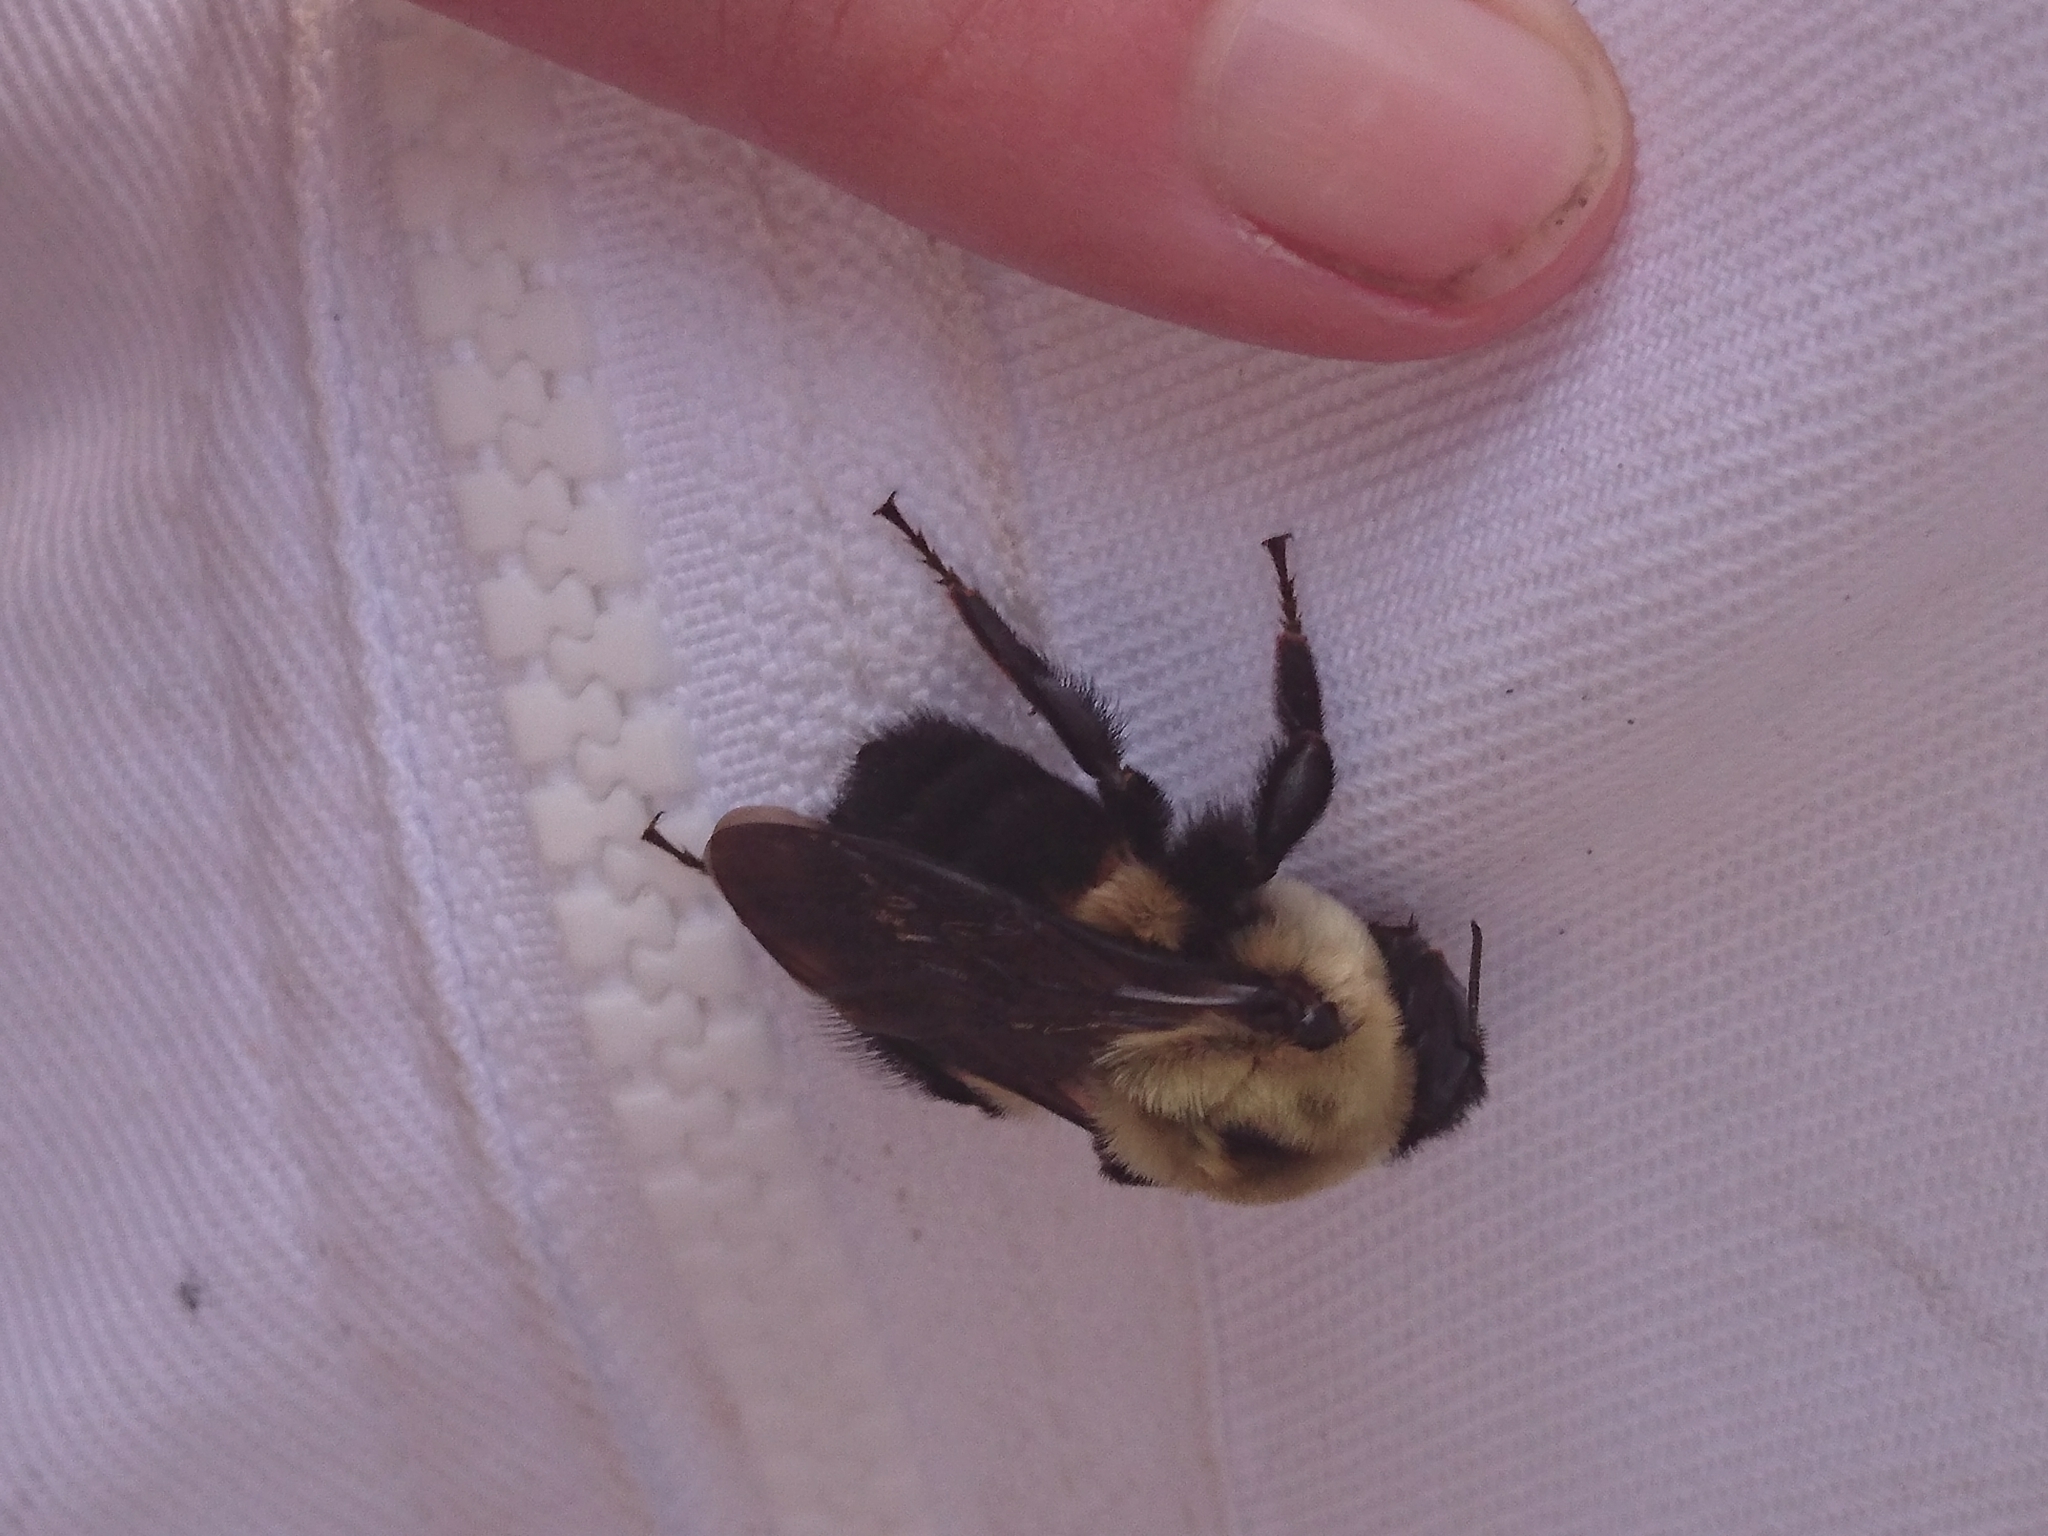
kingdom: Animalia
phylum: Arthropoda
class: Insecta
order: Hymenoptera
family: Apidae
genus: Bombus
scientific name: Bombus griseocollis
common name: Brown-belted bumble bee
